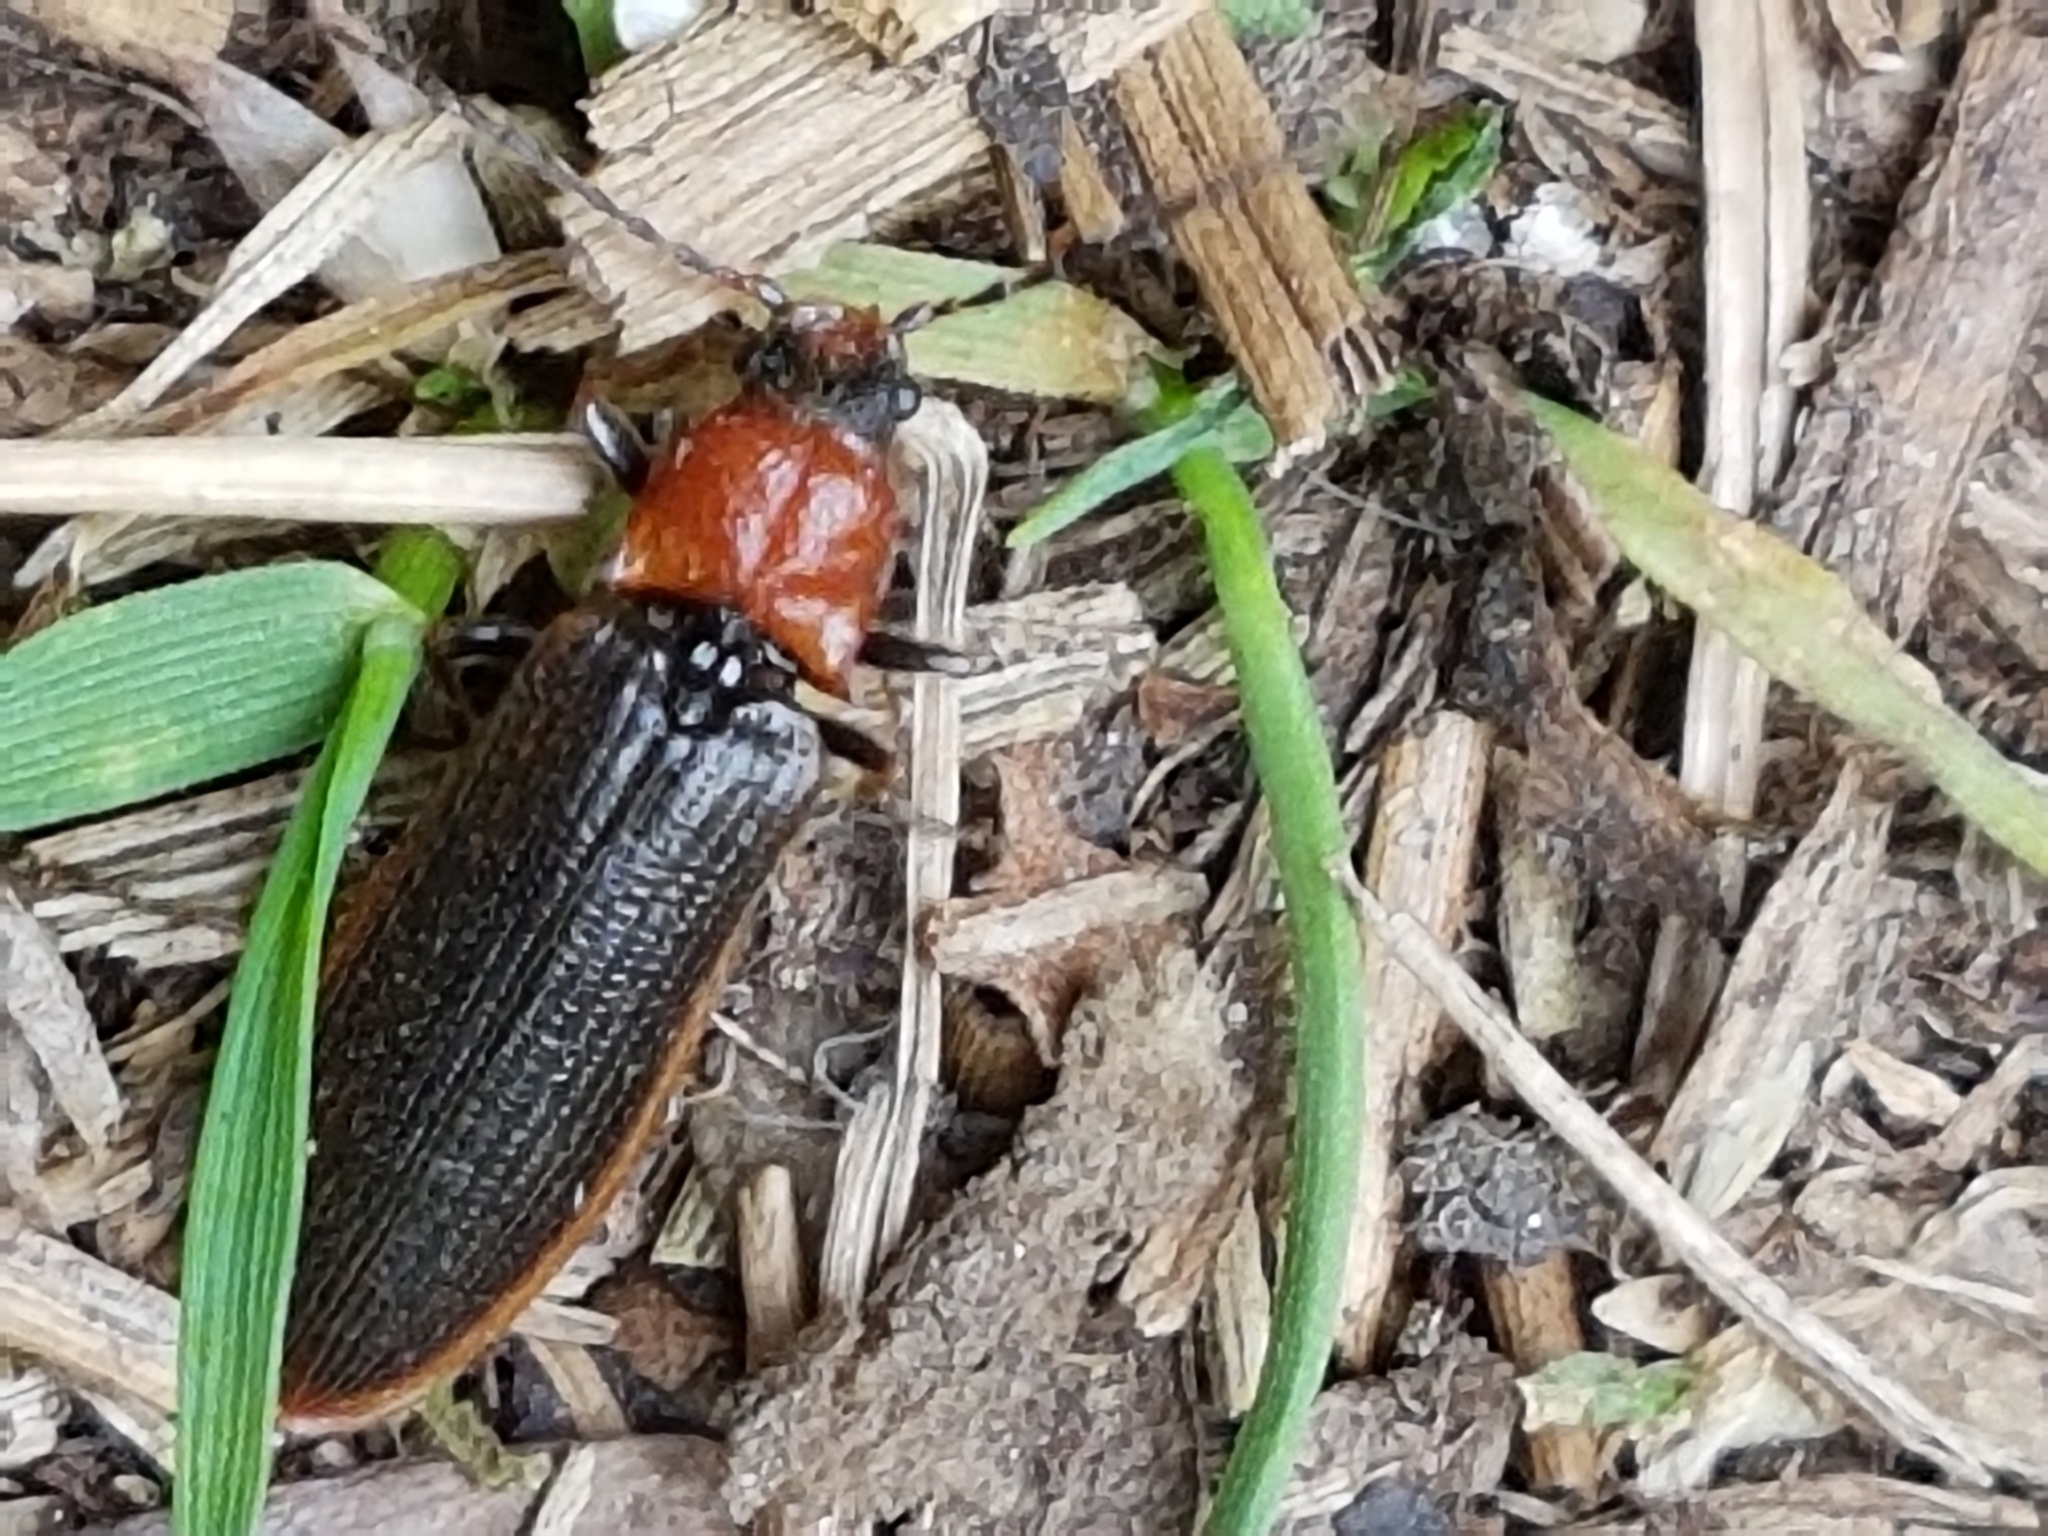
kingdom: Animalia
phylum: Arthropoda
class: Insecta
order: Coleoptera
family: Elateridae
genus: Denticollis
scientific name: Denticollis linearis
